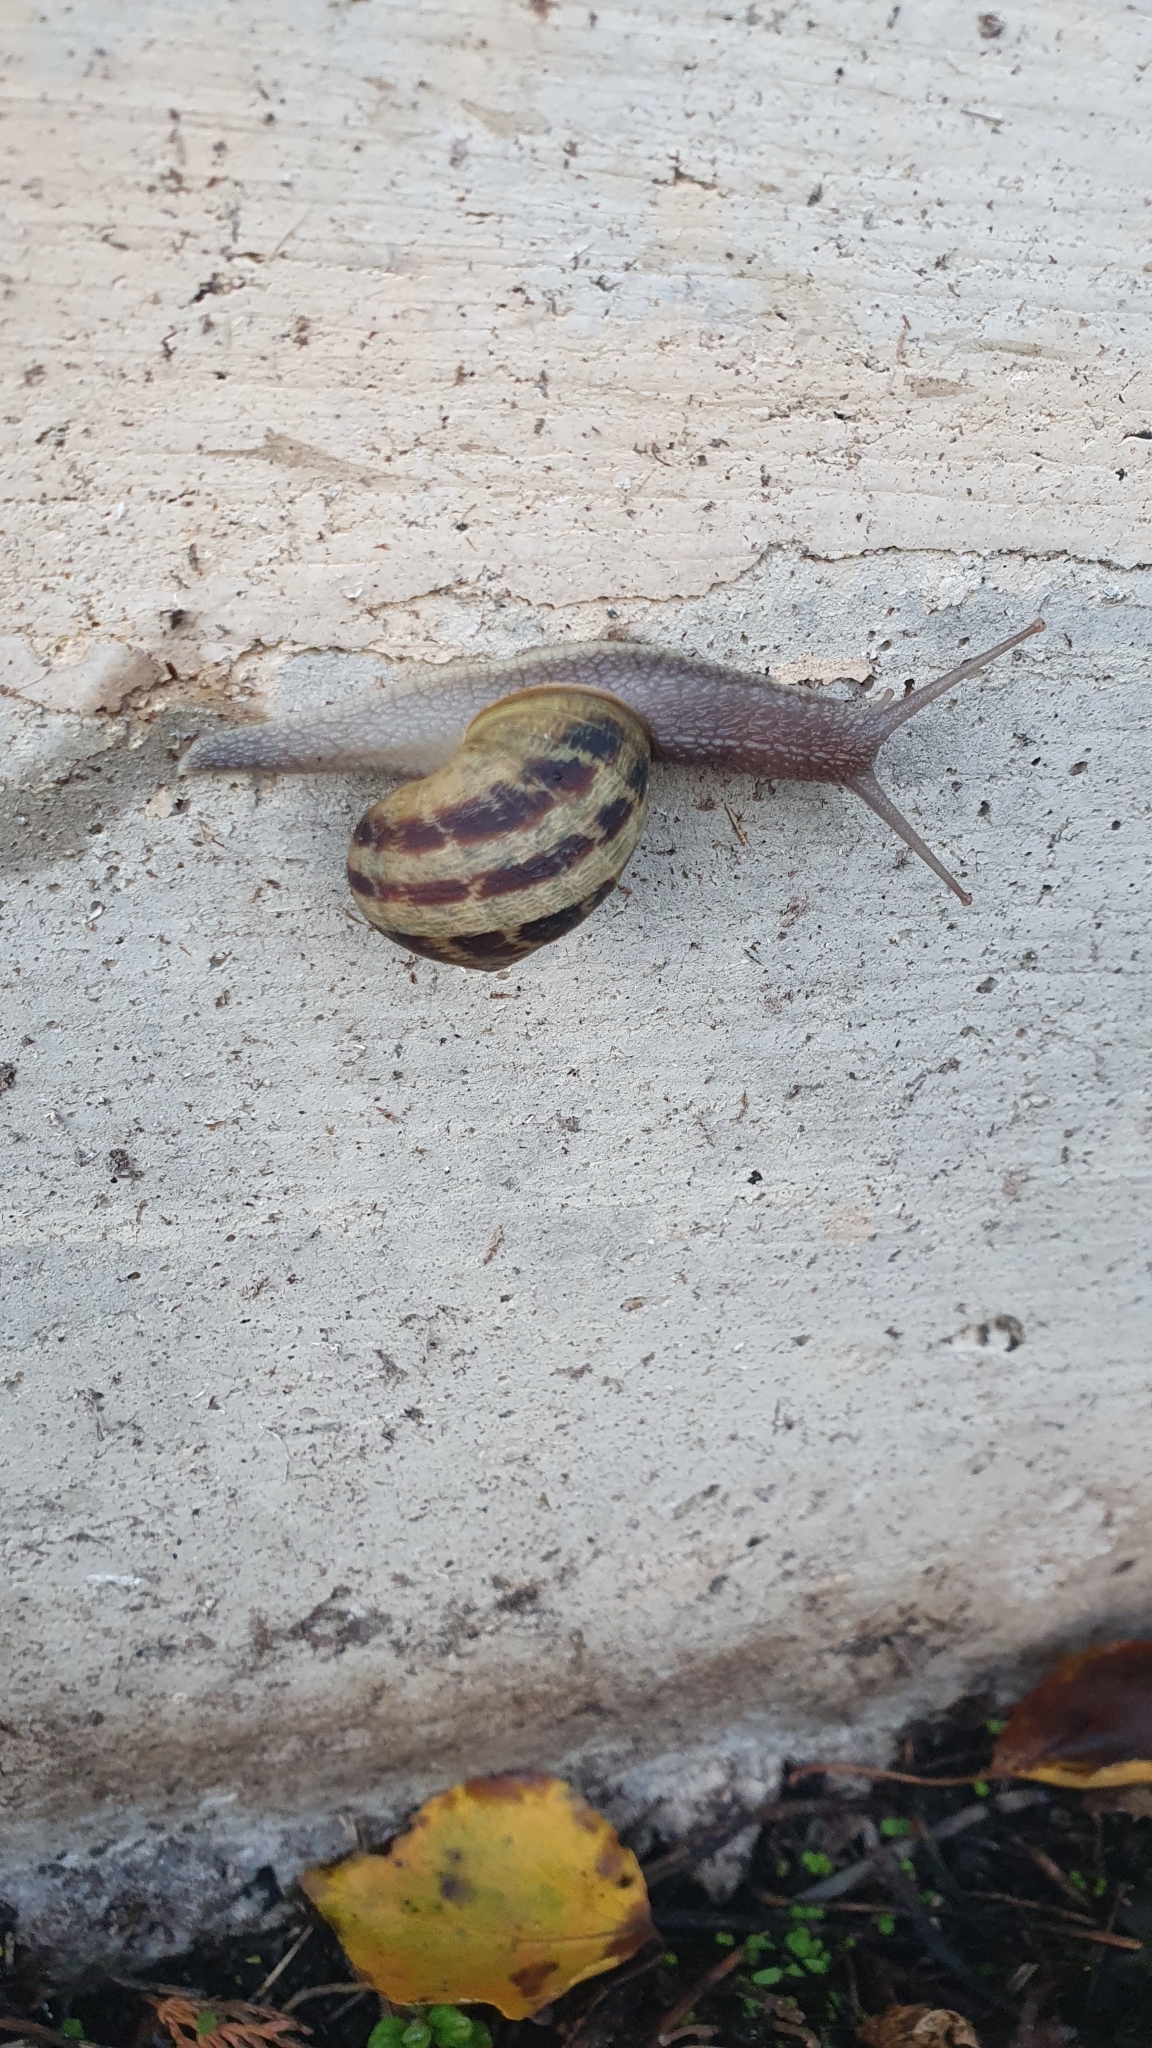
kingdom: Animalia
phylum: Mollusca
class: Gastropoda
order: Stylommatophora
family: Helicidae
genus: Cornu
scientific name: Cornu aspersum
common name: Brown garden snail
